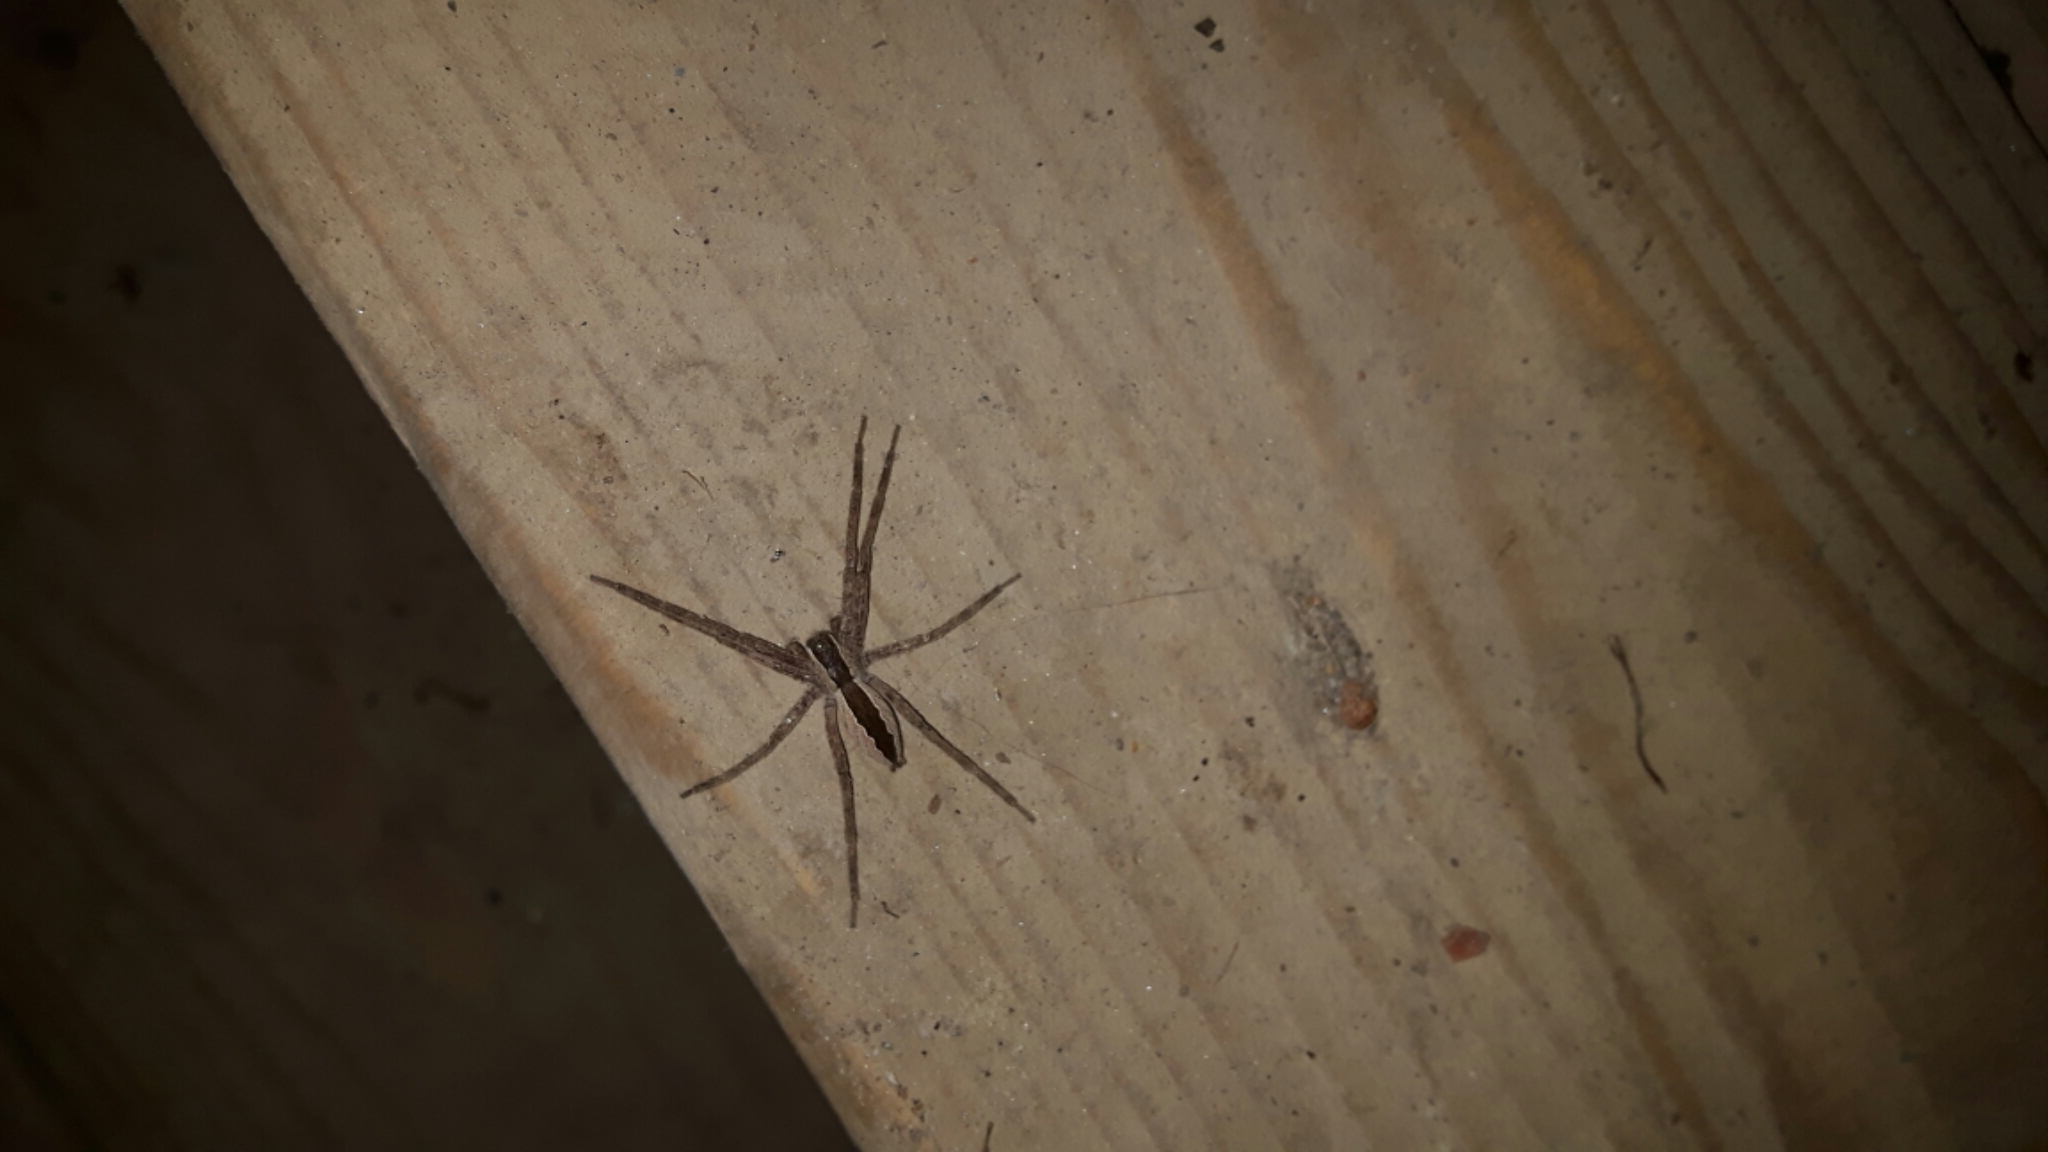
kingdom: Animalia
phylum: Arthropoda
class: Arachnida
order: Araneae
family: Pisauridae
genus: Pisaurina
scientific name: Pisaurina mira
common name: American nursery web spider
